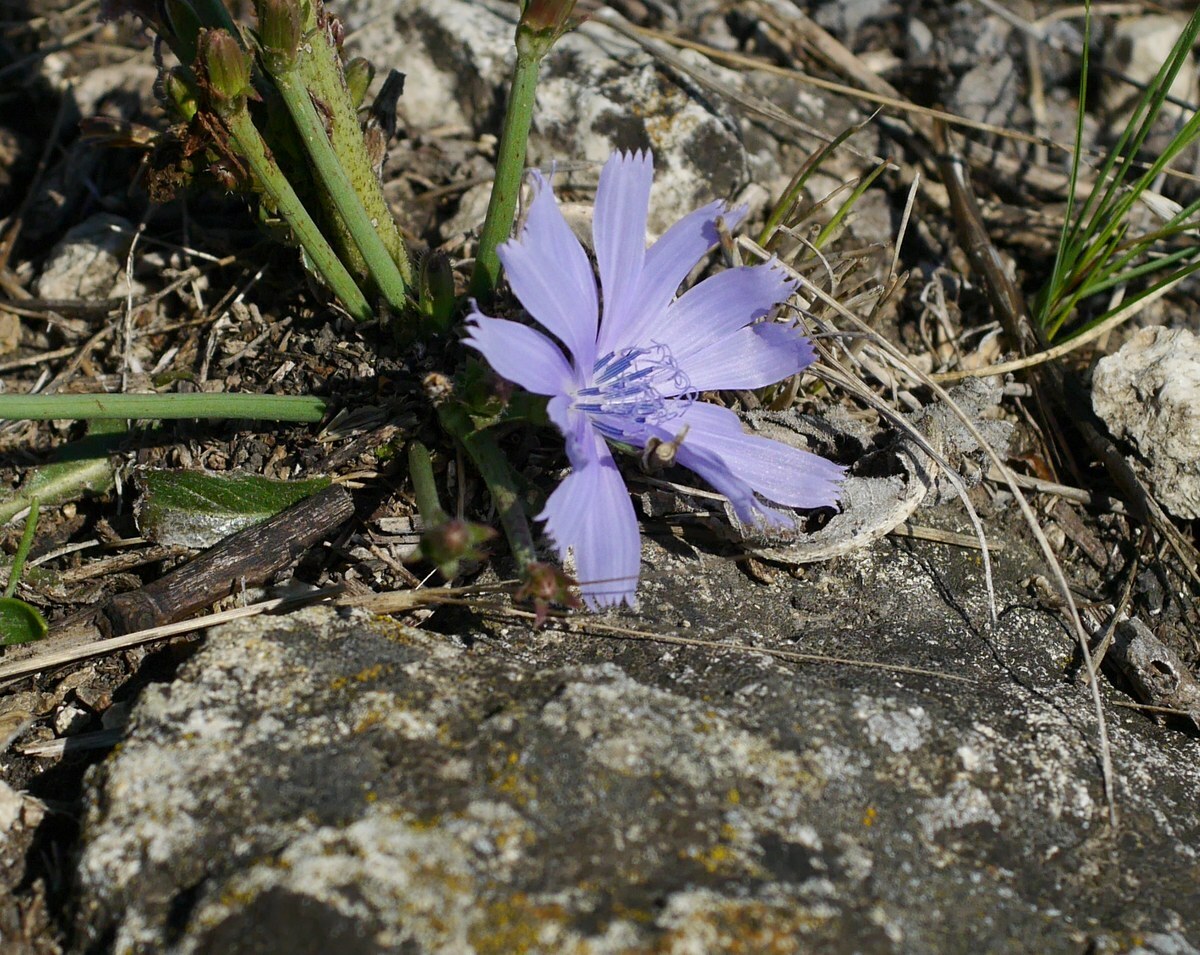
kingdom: Plantae
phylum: Tracheophyta
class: Magnoliopsida
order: Asterales
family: Asteraceae
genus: Cichorium
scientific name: Cichorium intybus
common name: Chicory
